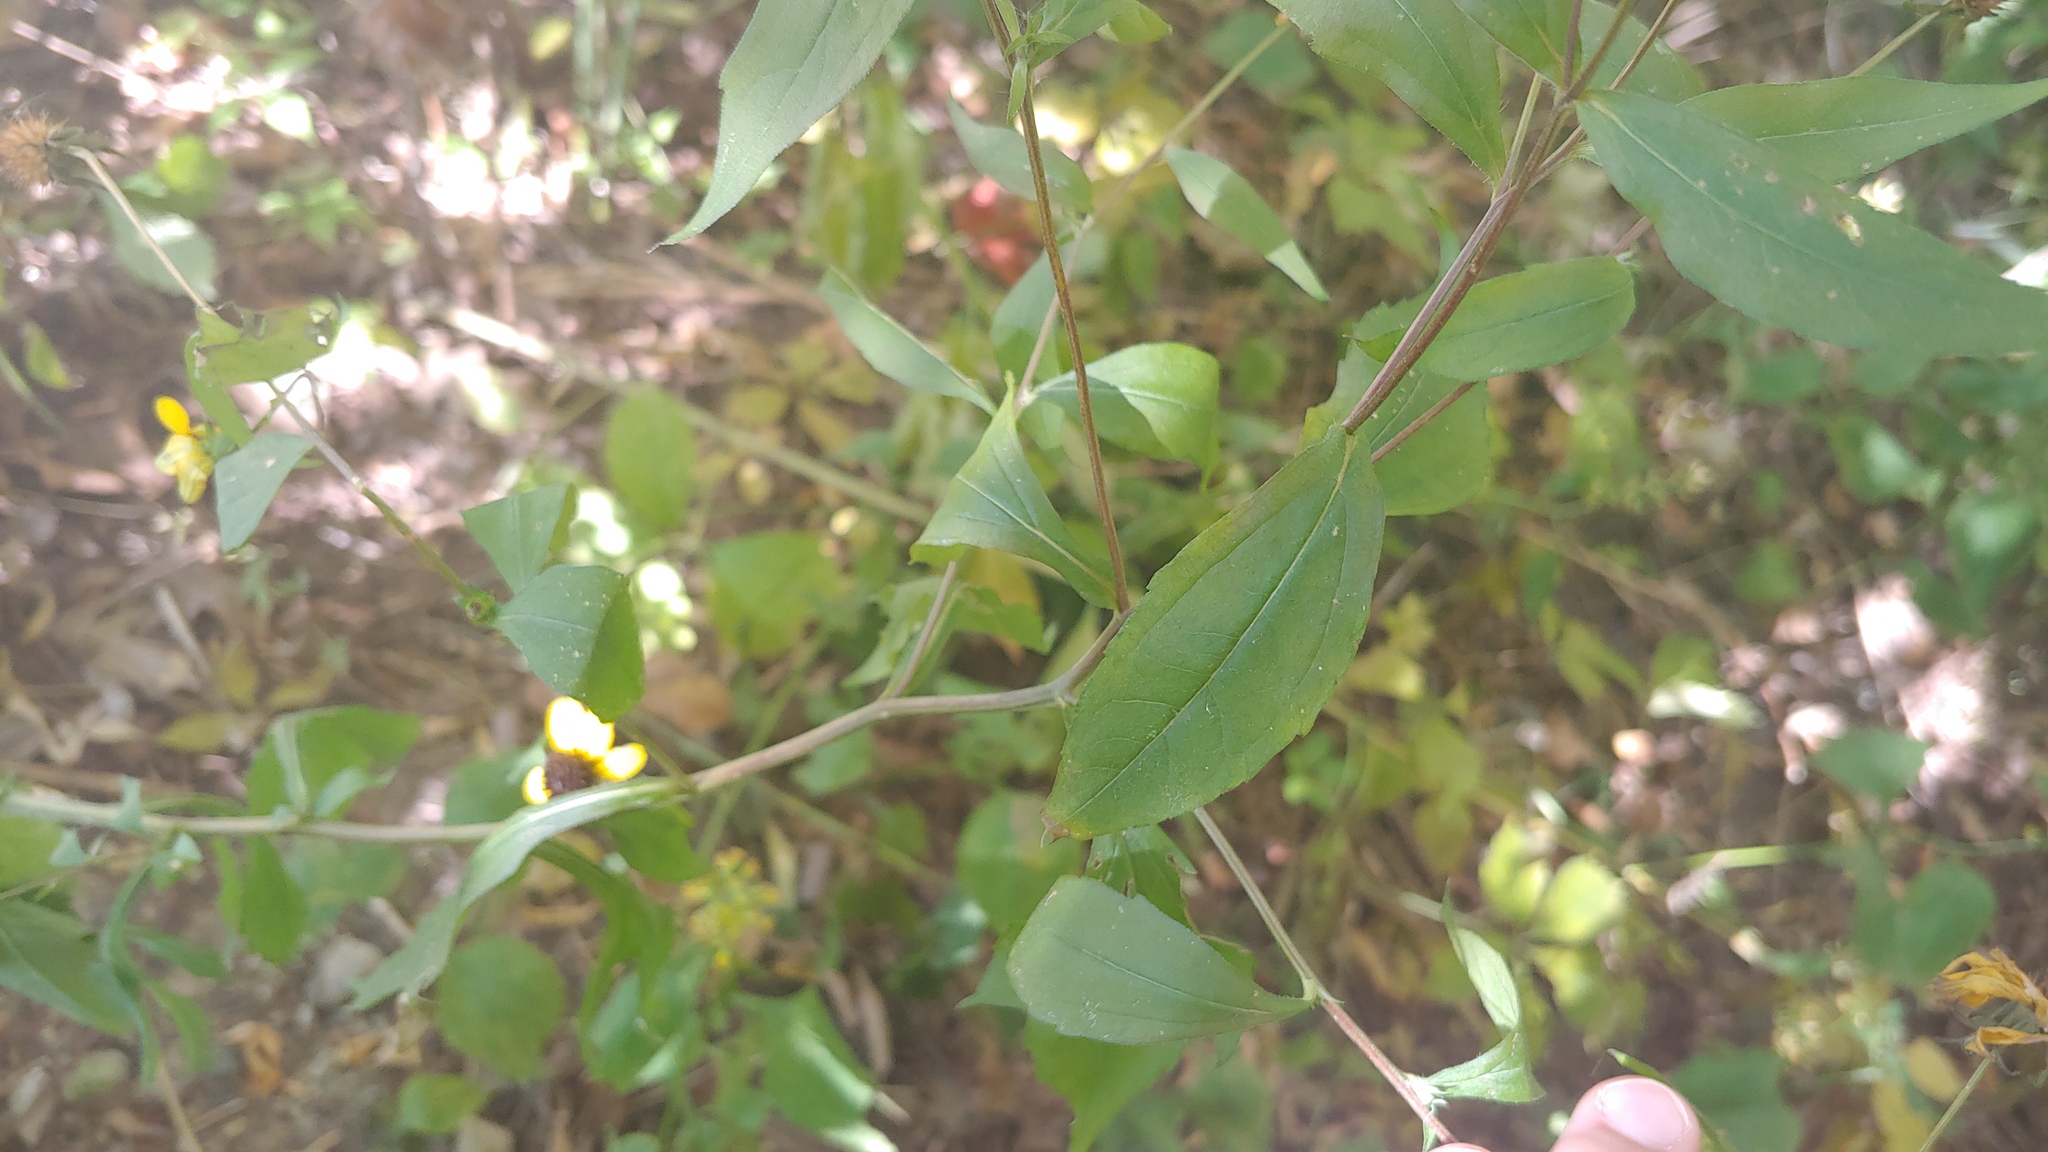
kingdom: Plantae
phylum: Tracheophyta
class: Magnoliopsida
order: Asterales
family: Asteraceae
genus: Rudbeckia
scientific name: Rudbeckia triloba
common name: Thin-leaved coneflower
